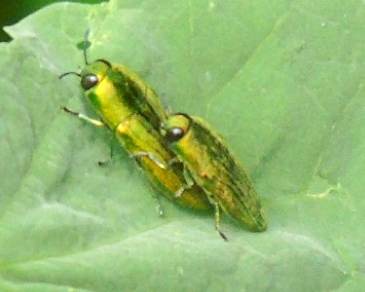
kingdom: Animalia
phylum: Arthropoda
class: Insecta
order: Coleoptera
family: Buprestidae
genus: Agaeocera
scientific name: Agaeocera scintillans
